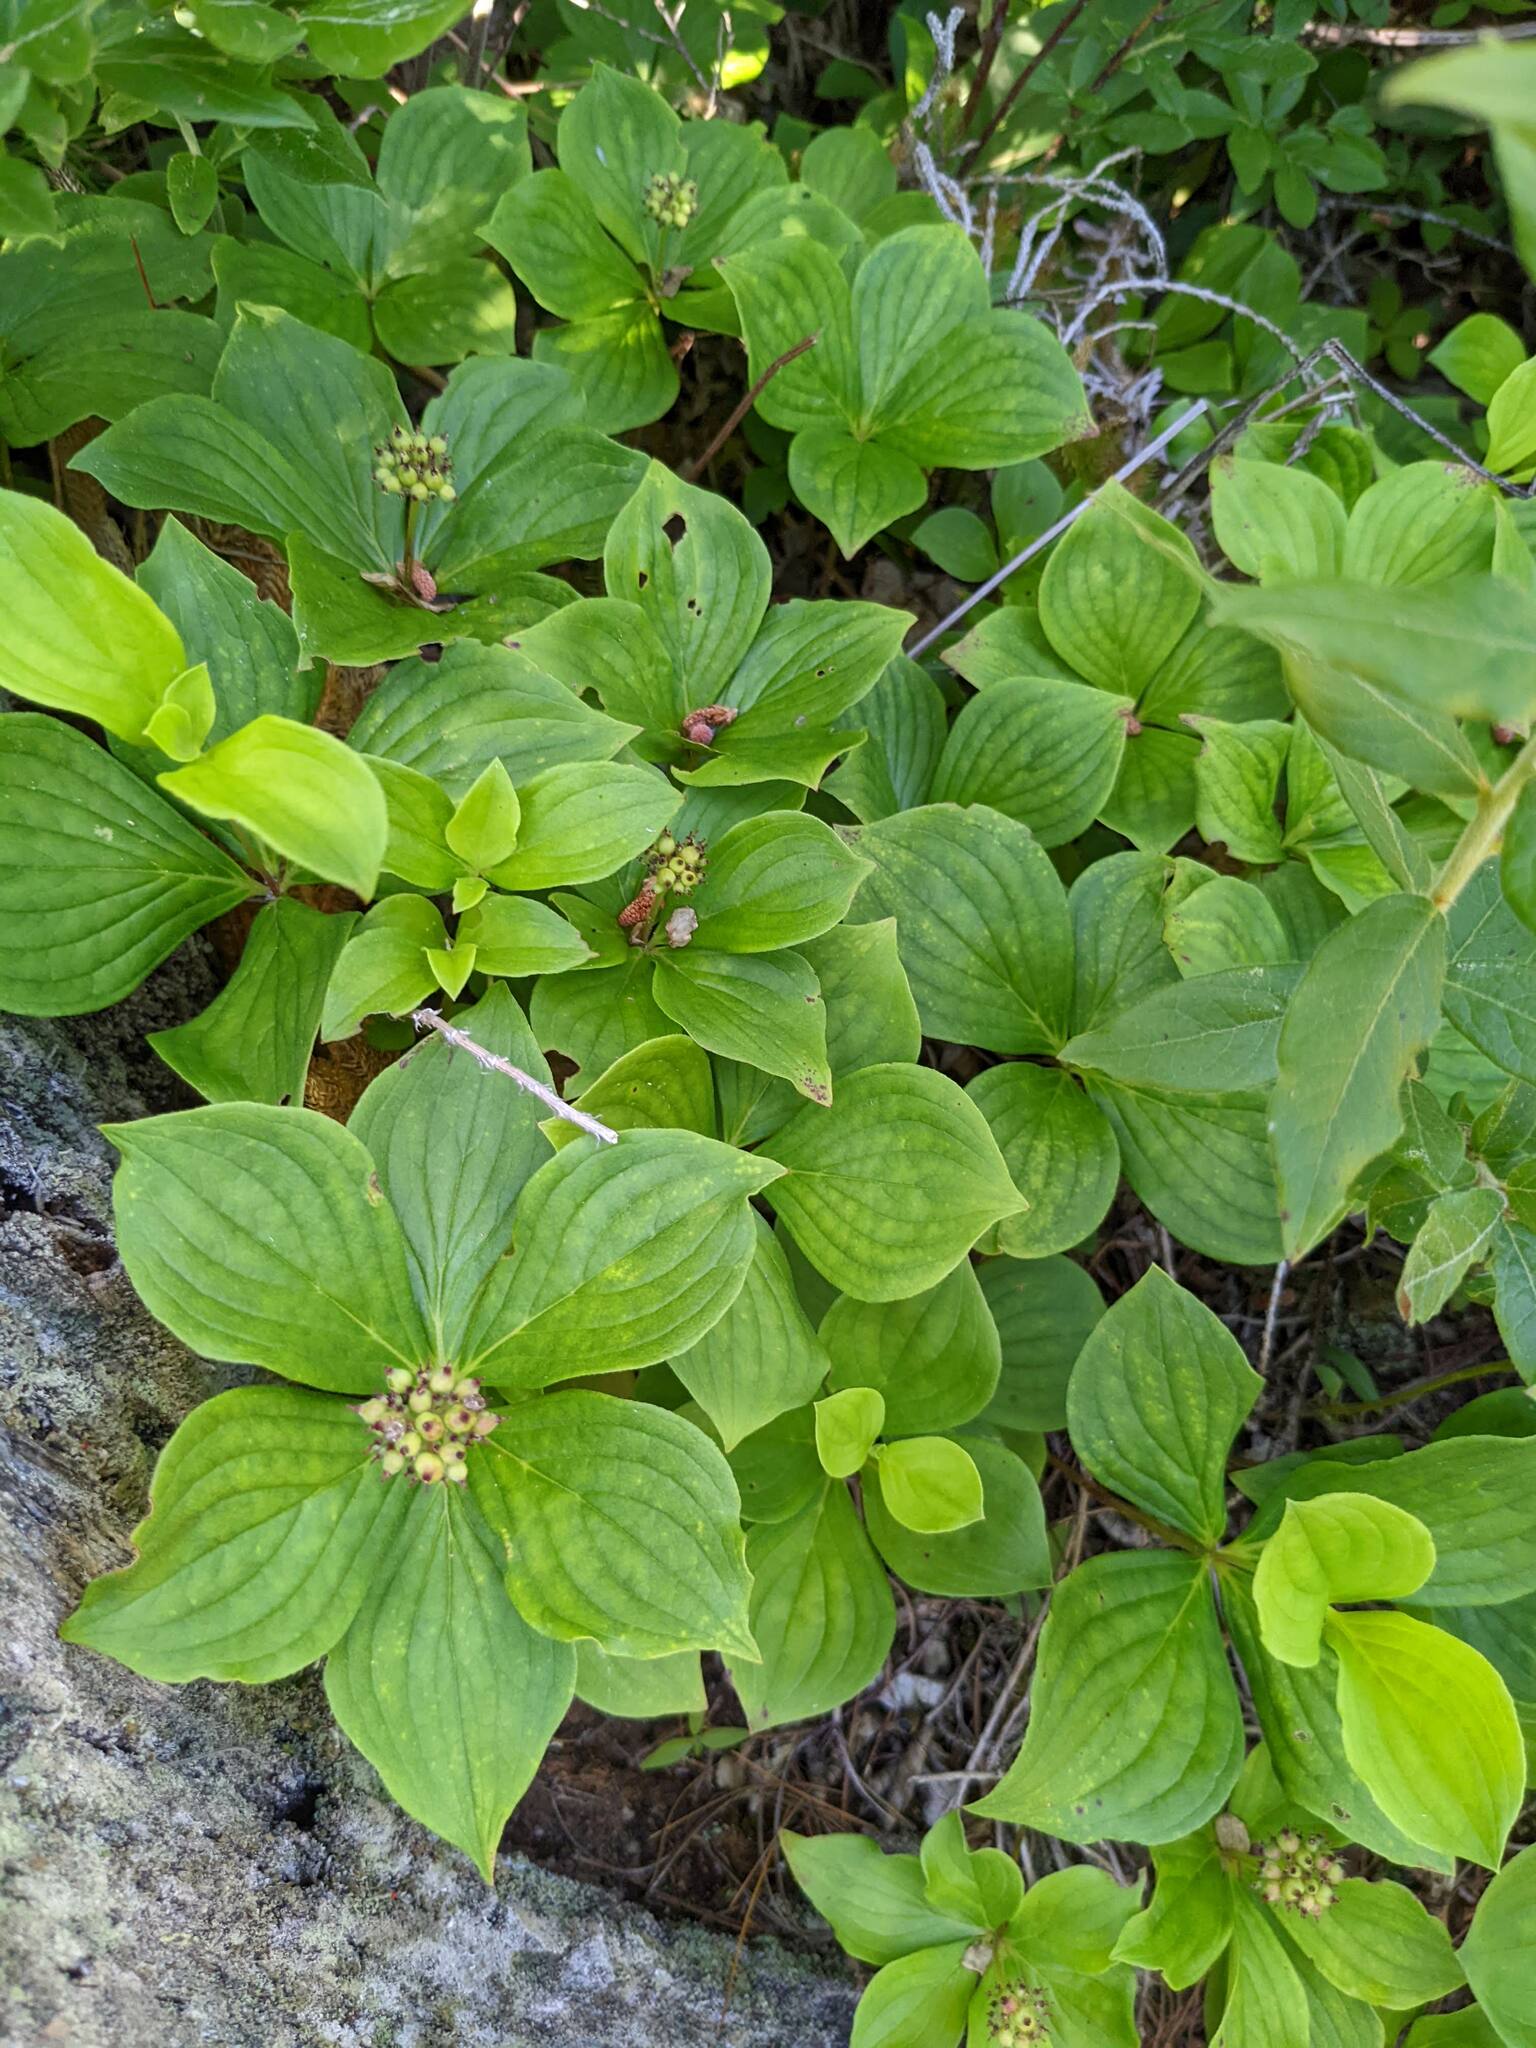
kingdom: Plantae
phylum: Tracheophyta
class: Magnoliopsida
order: Cornales
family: Cornaceae
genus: Cornus
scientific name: Cornus canadensis
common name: Creeping dogwood
